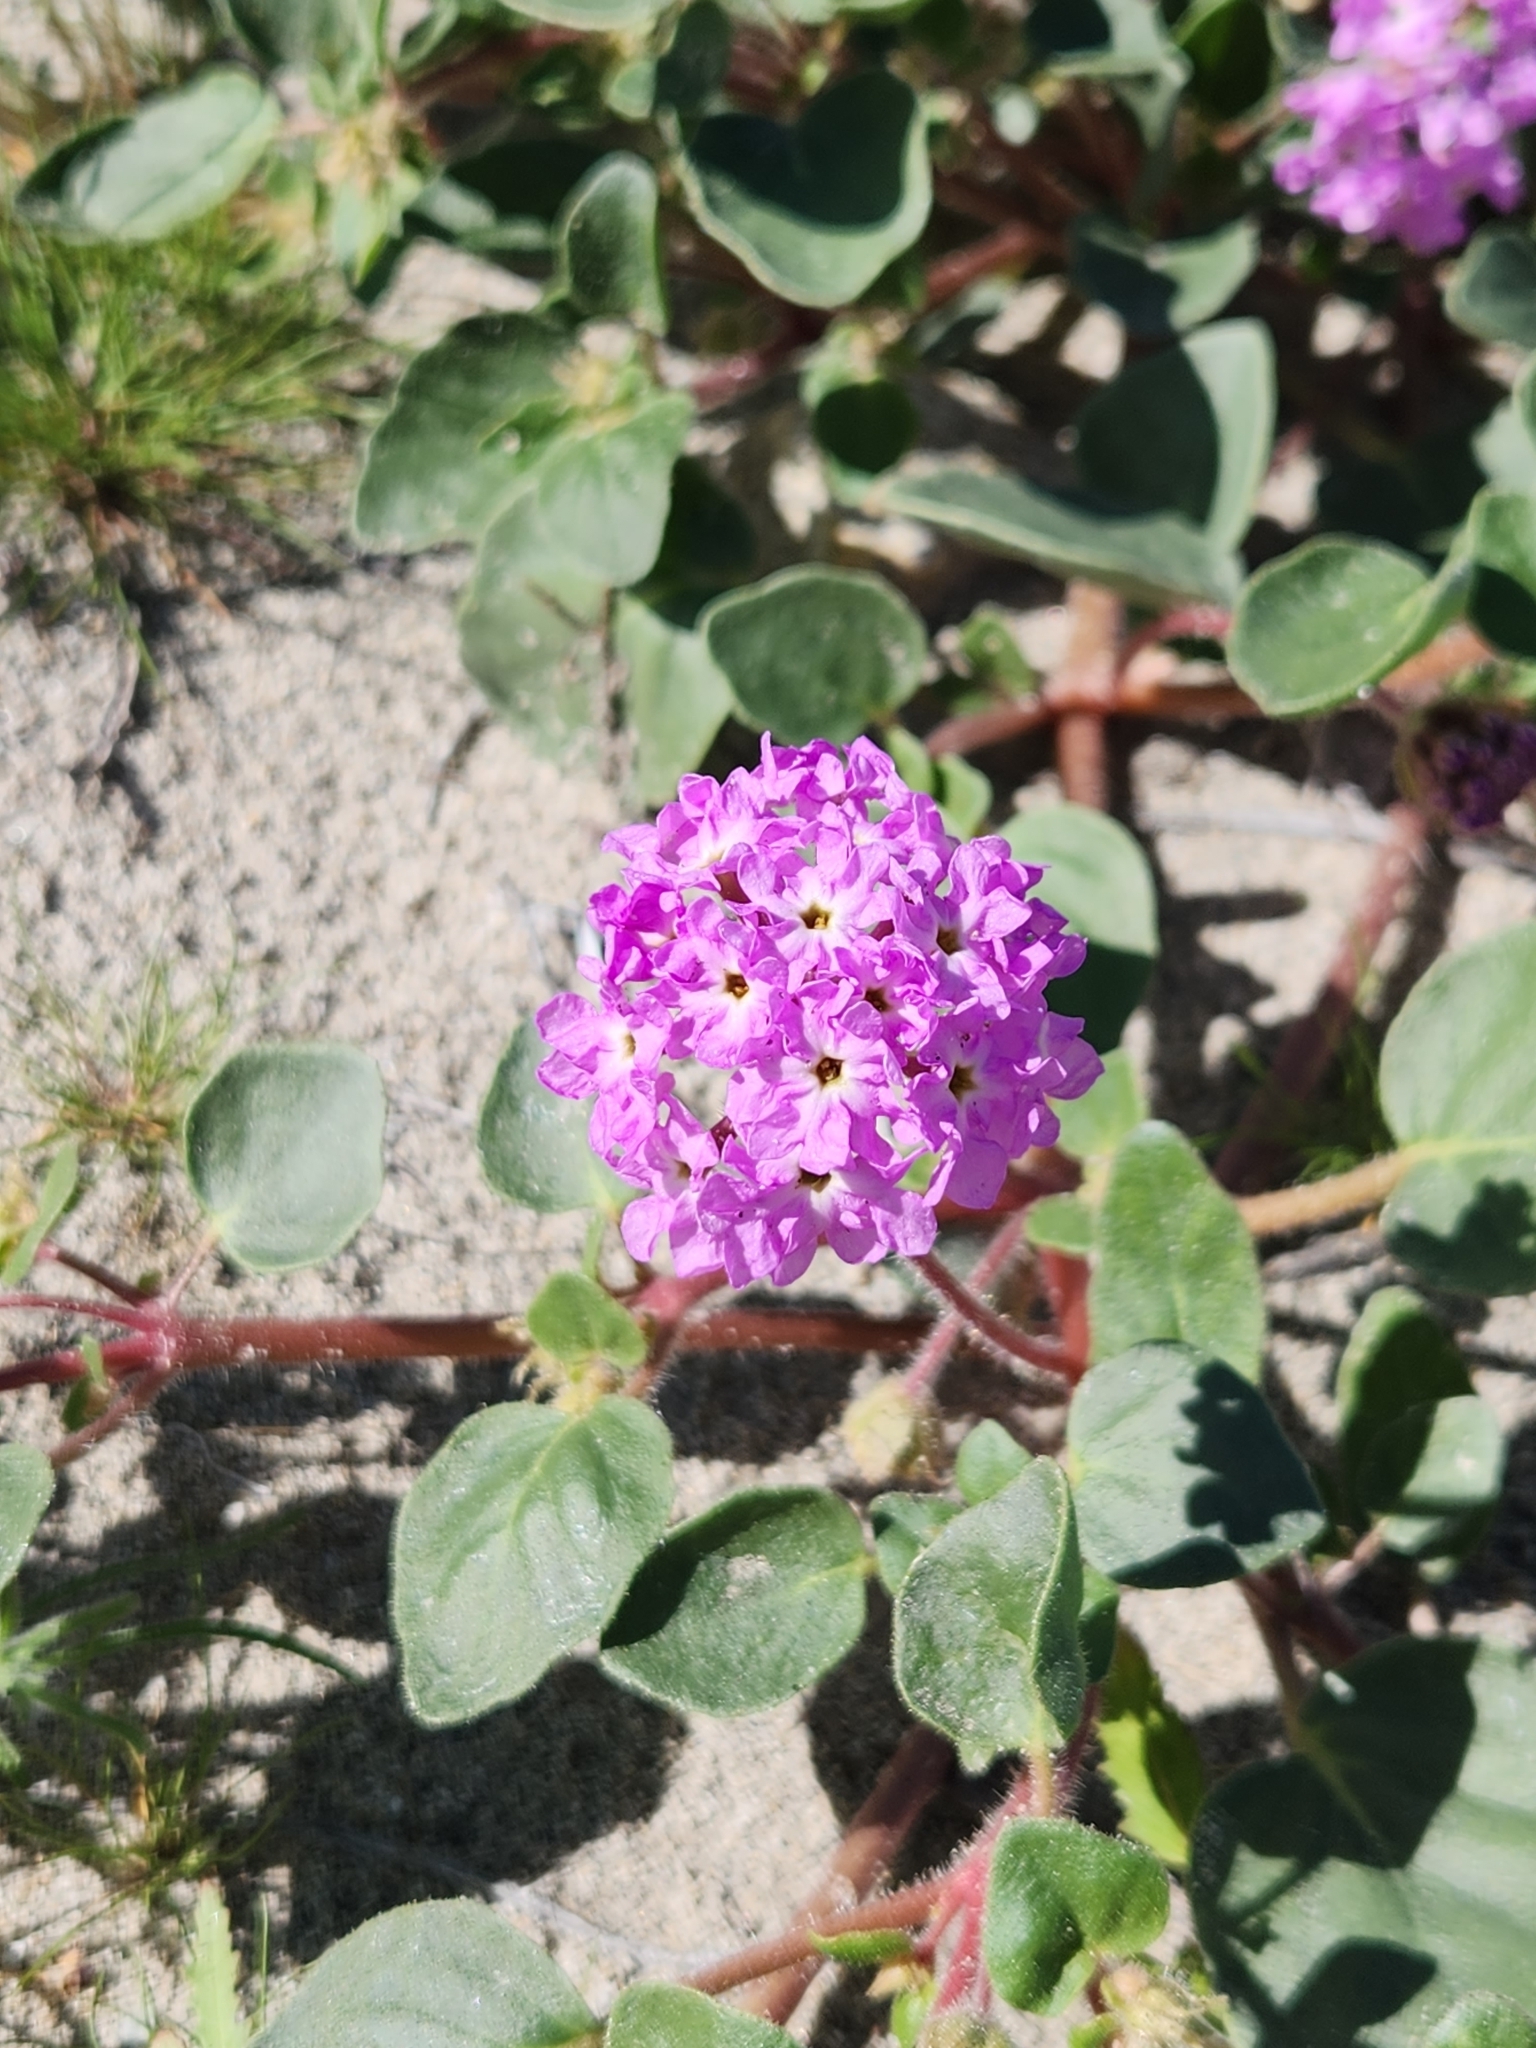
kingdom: Plantae
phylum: Tracheophyta
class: Magnoliopsida
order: Caryophyllales
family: Nyctaginaceae
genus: Abronia
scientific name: Abronia villosa
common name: Desert sand-verbena
